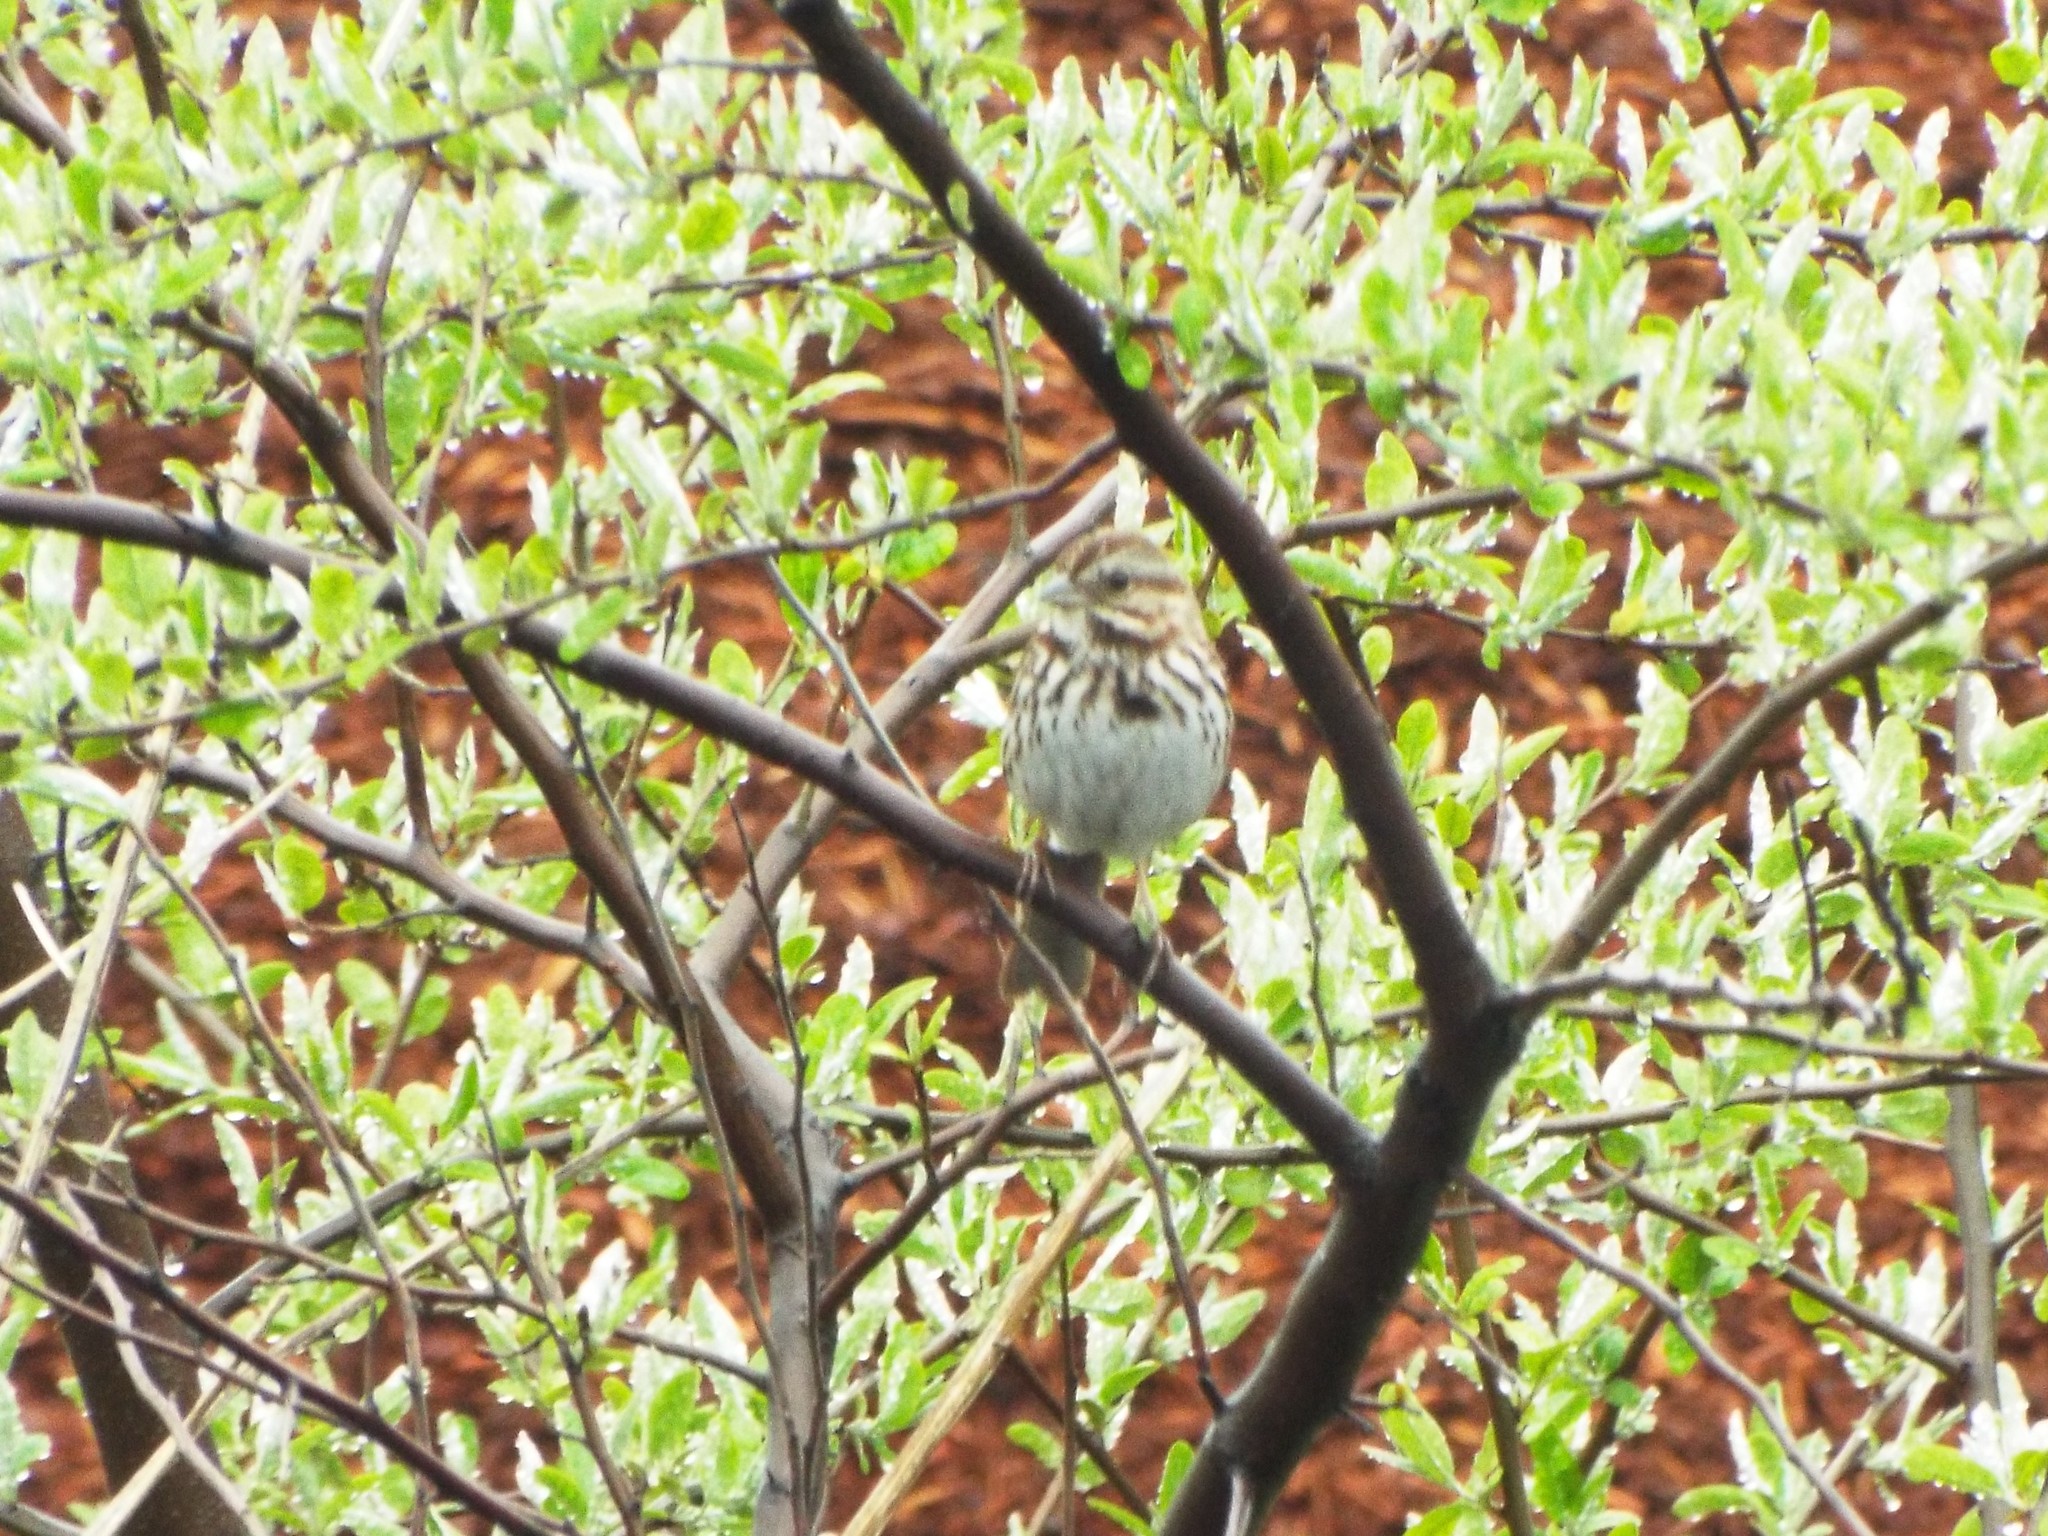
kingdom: Animalia
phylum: Chordata
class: Aves
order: Passeriformes
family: Passerellidae
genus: Melospiza
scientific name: Melospiza melodia
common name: Song sparrow
